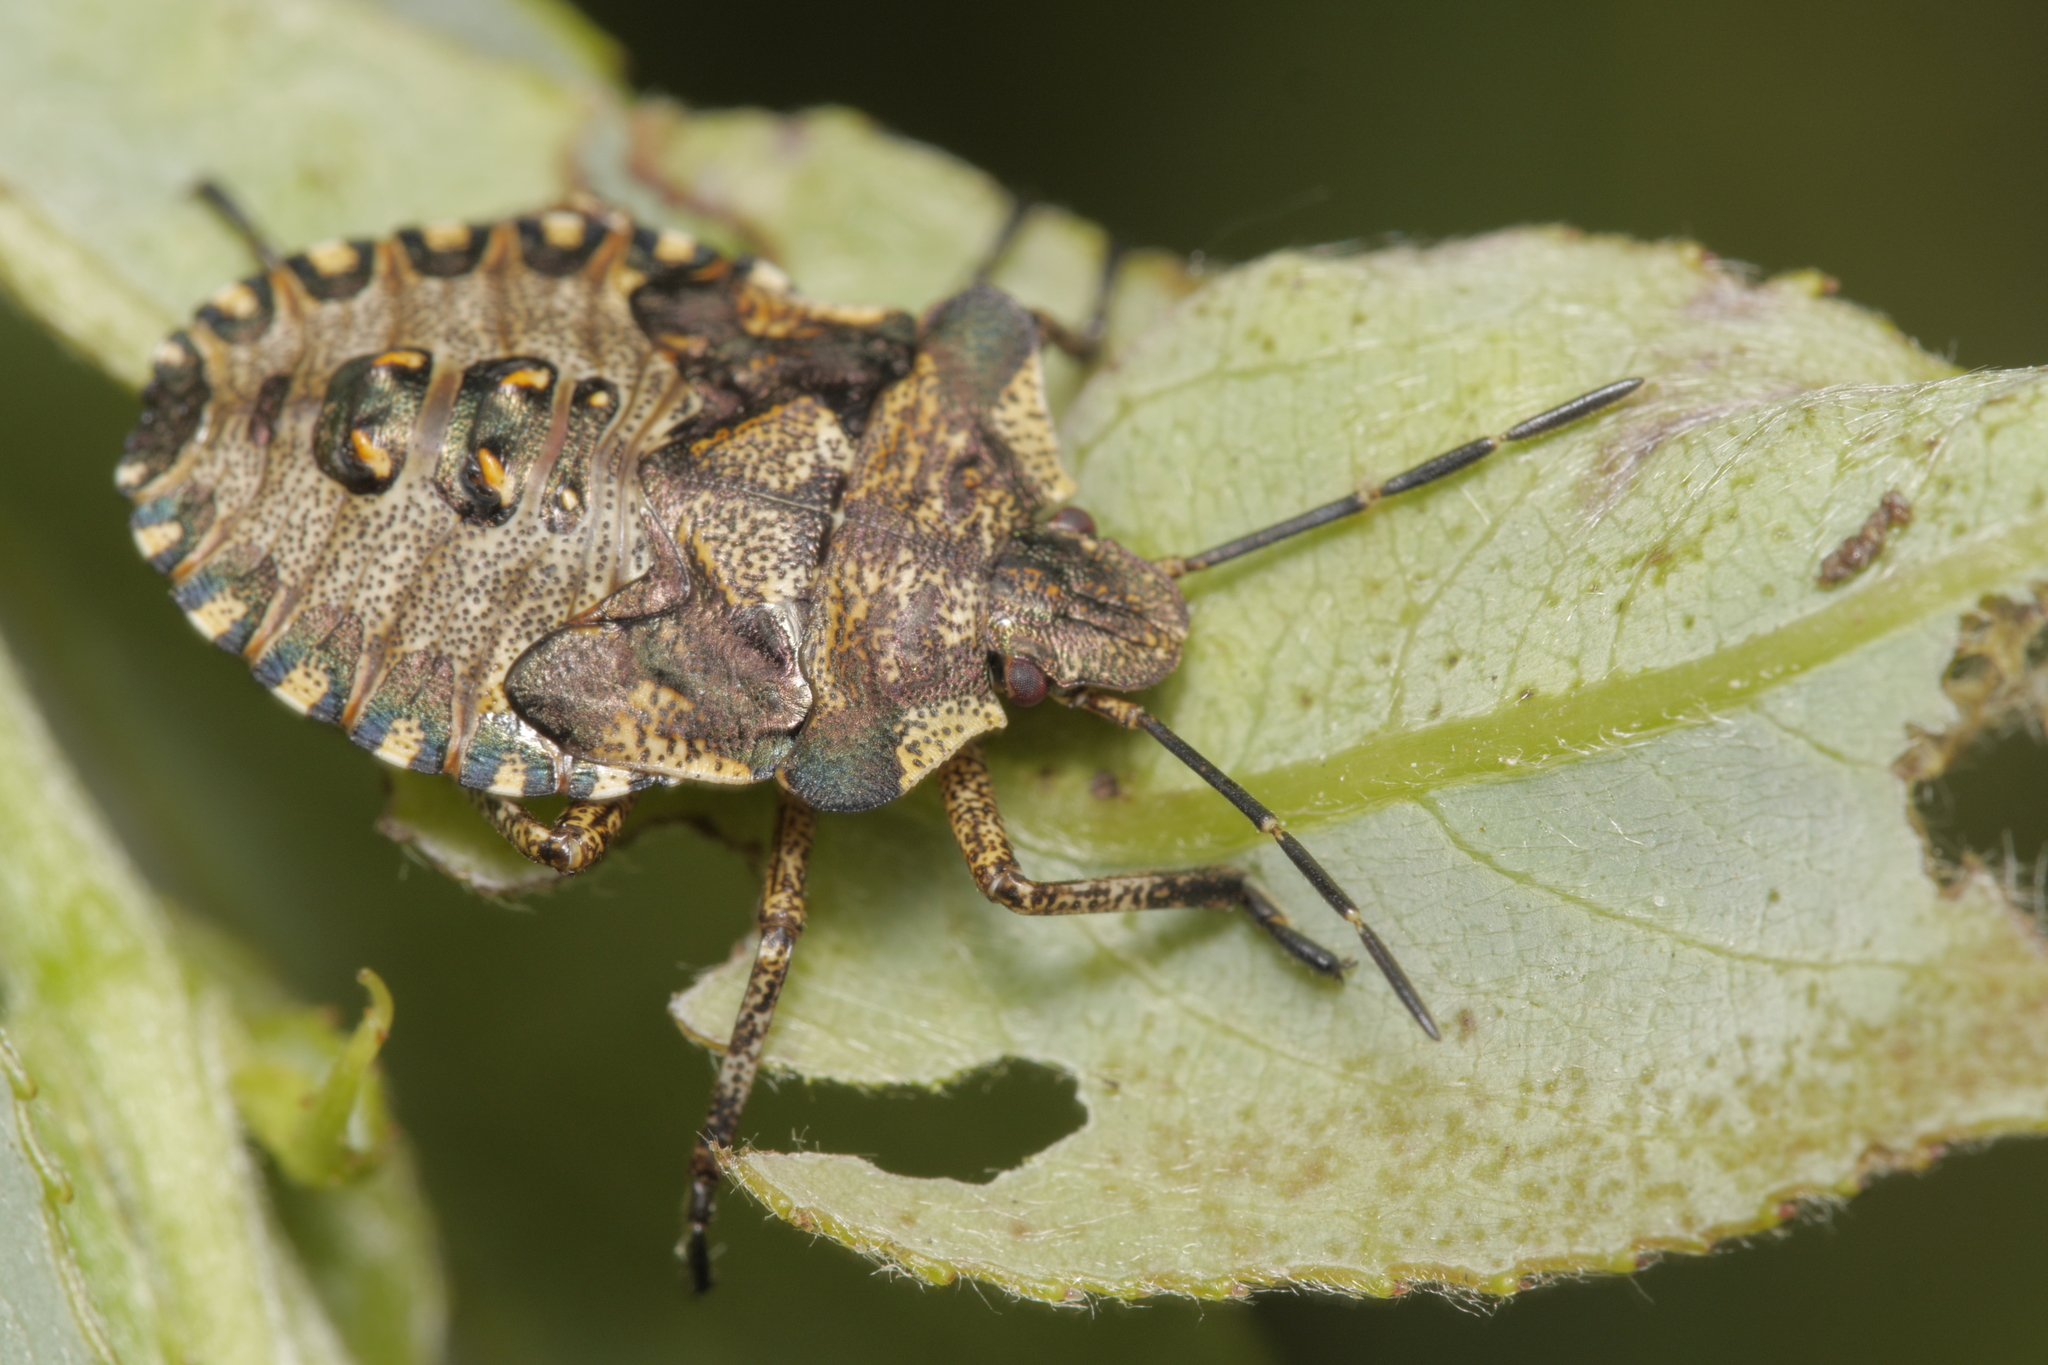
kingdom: Animalia
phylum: Arthropoda
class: Insecta
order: Hemiptera
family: Pentatomidae
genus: Pentatoma
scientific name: Pentatoma rufipes
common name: Forest bug
